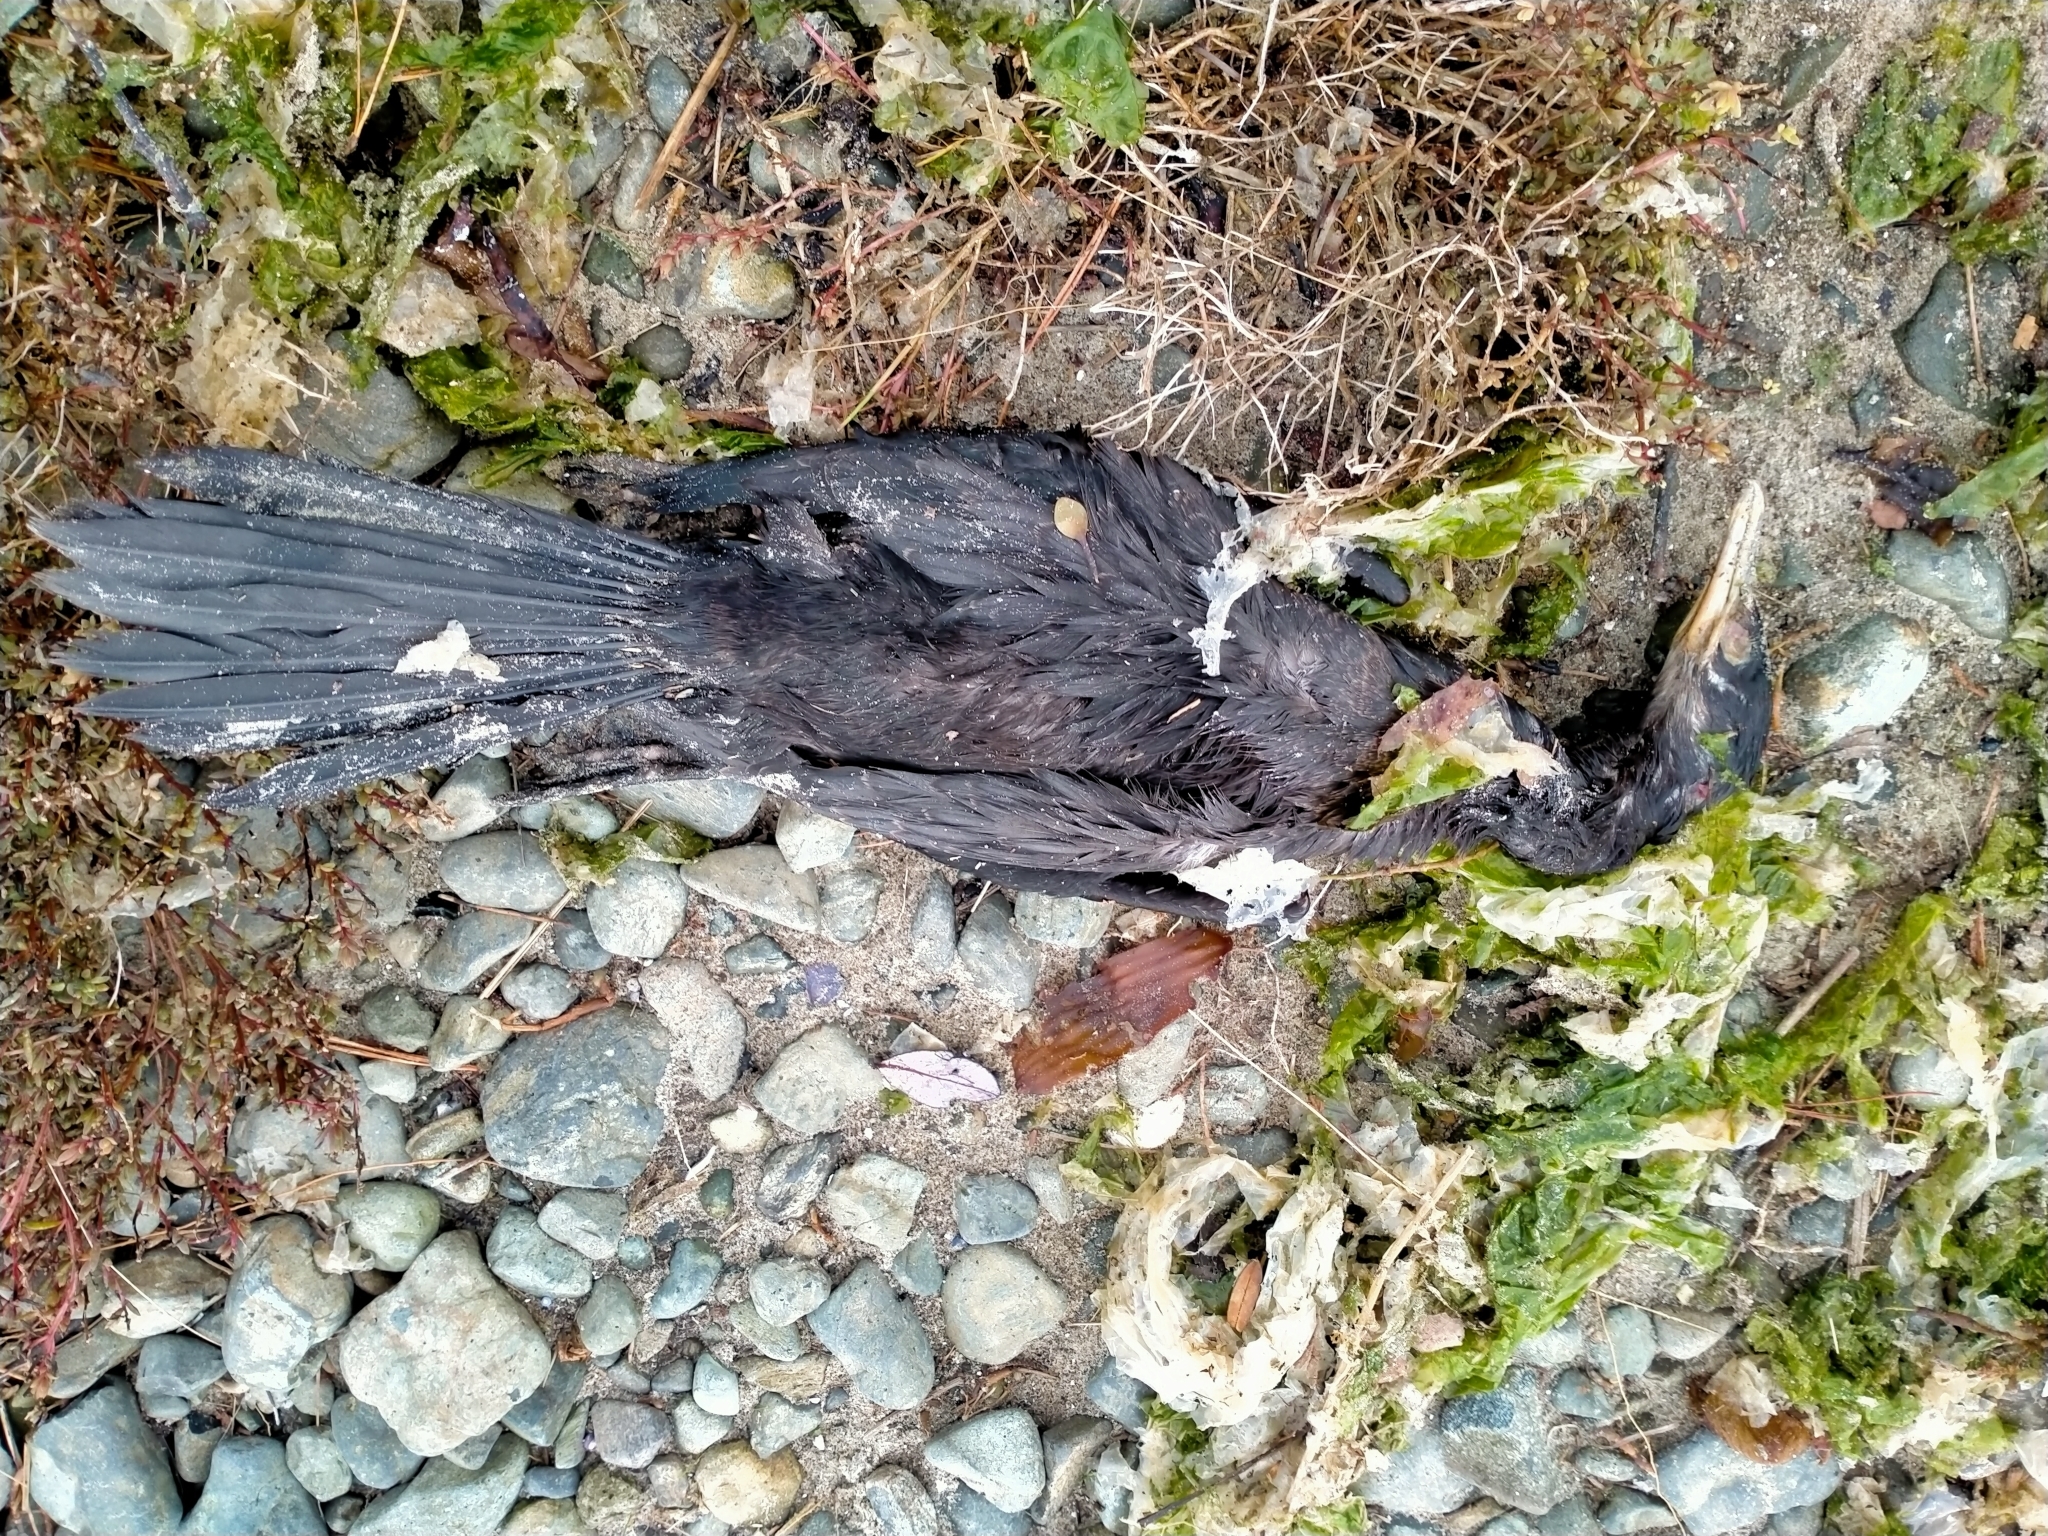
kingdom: Animalia
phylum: Chordata
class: Aves
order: Suliformes
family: Phalacrocoracidae
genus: Microcarbo
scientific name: Microcarbo melanoleucos
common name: Little pied cormorant
